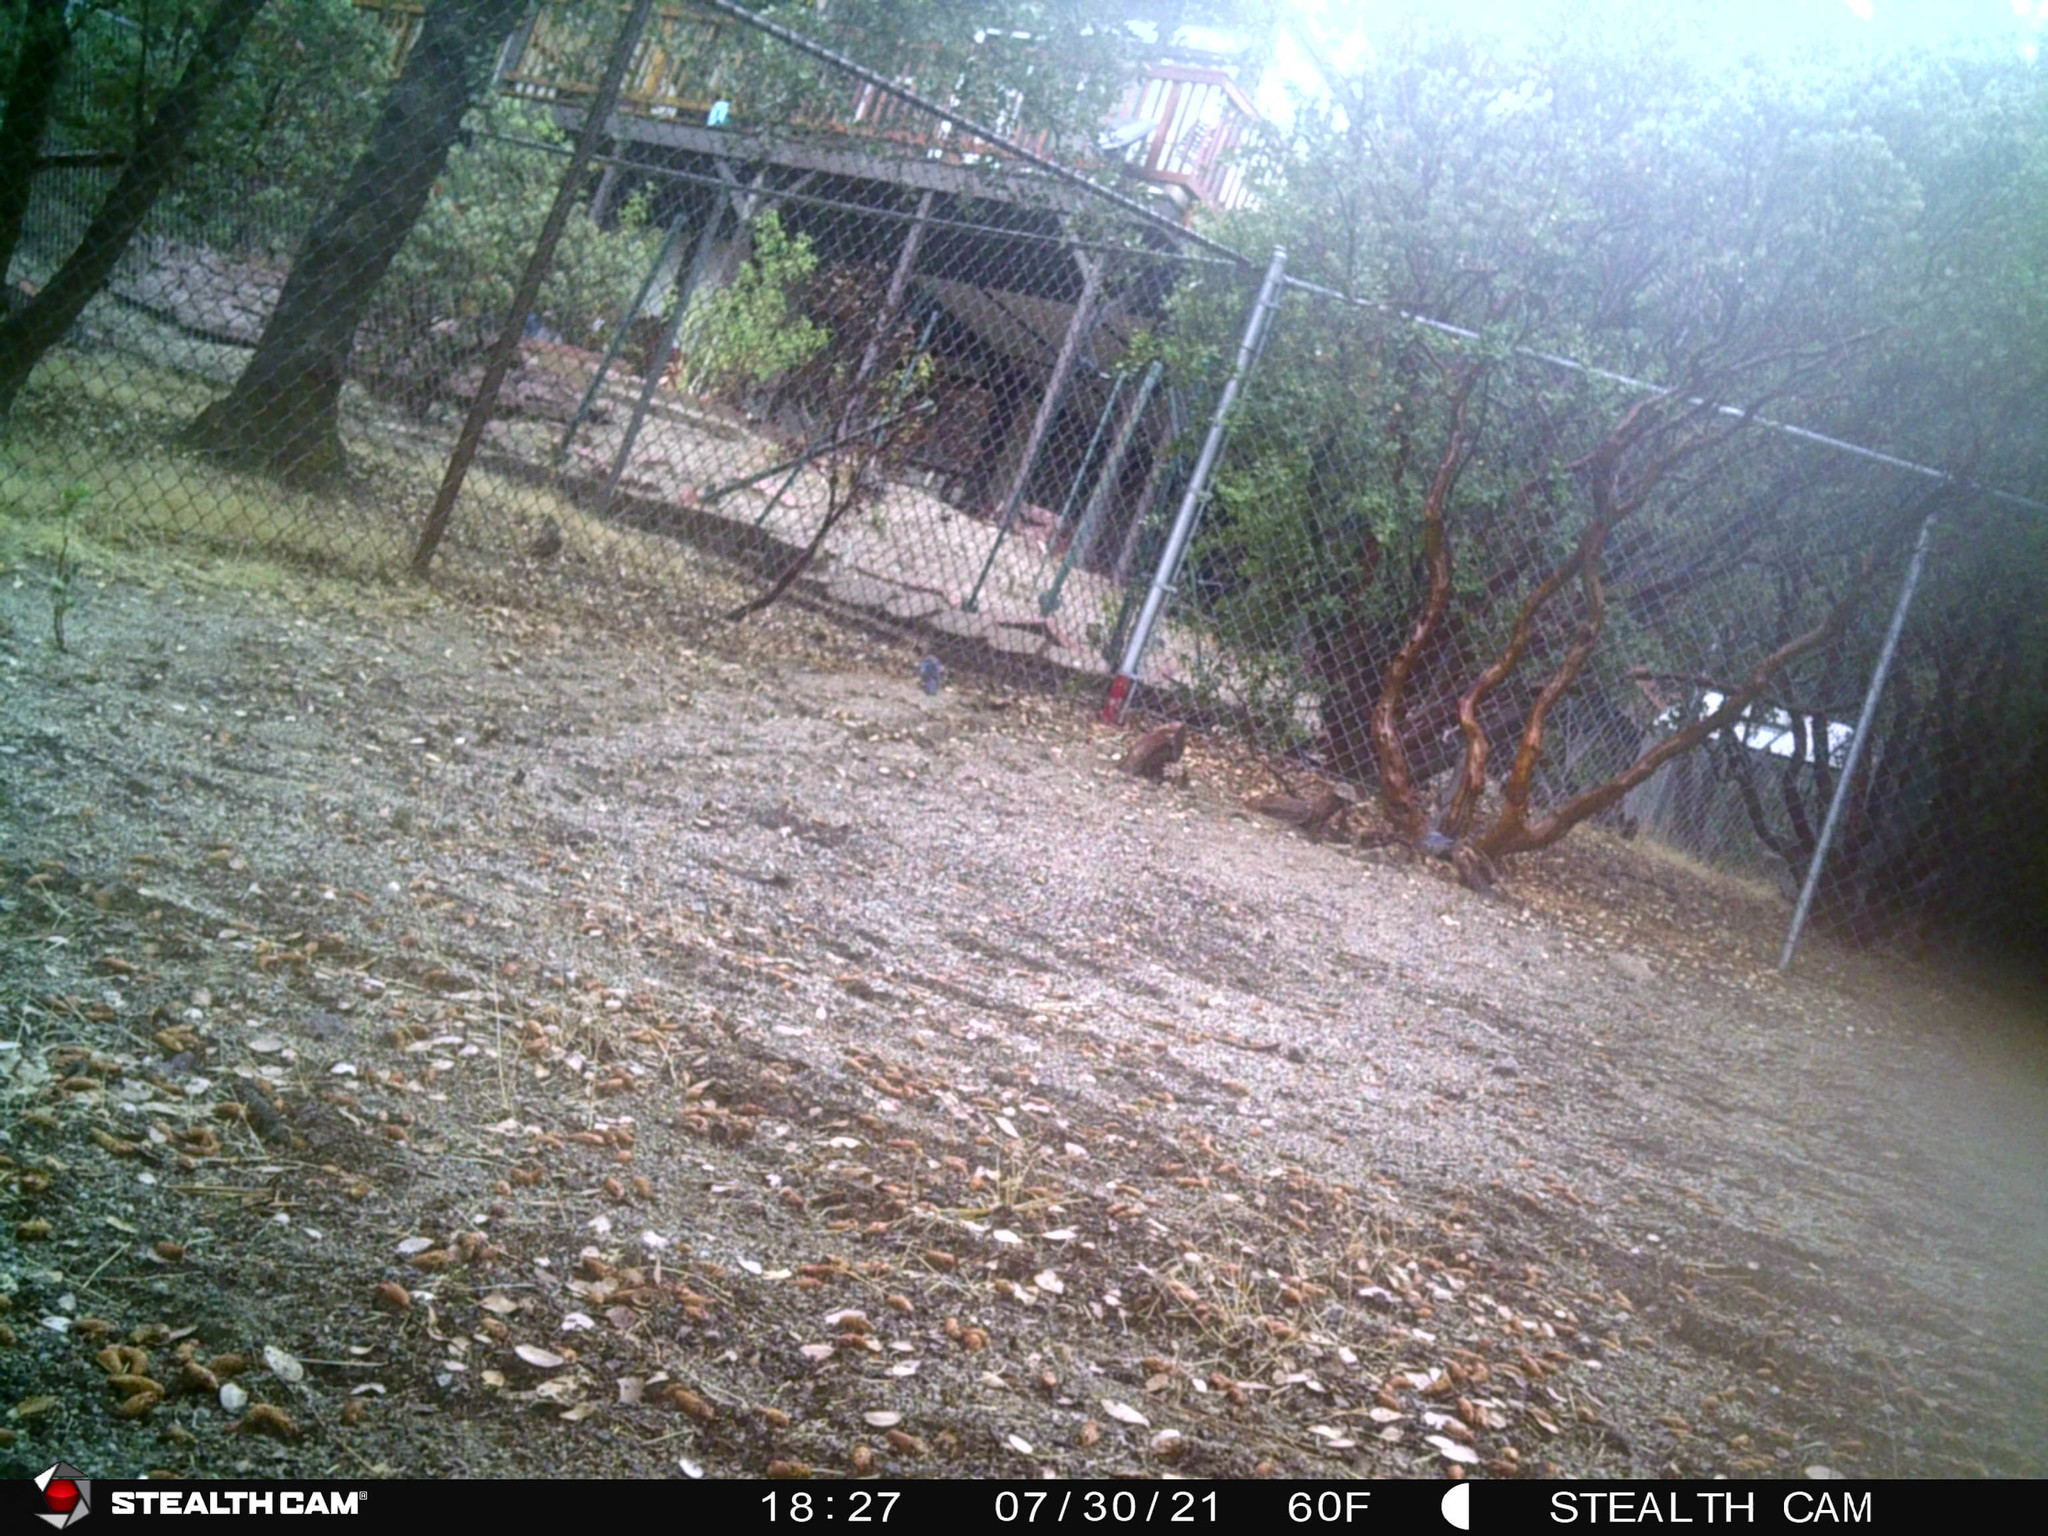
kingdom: Animalia
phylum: Chordata
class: Aves
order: Passeriformes
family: Corvidae
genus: Cyanocitta
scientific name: Cyanocitta stelleri
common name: Steller's jay
